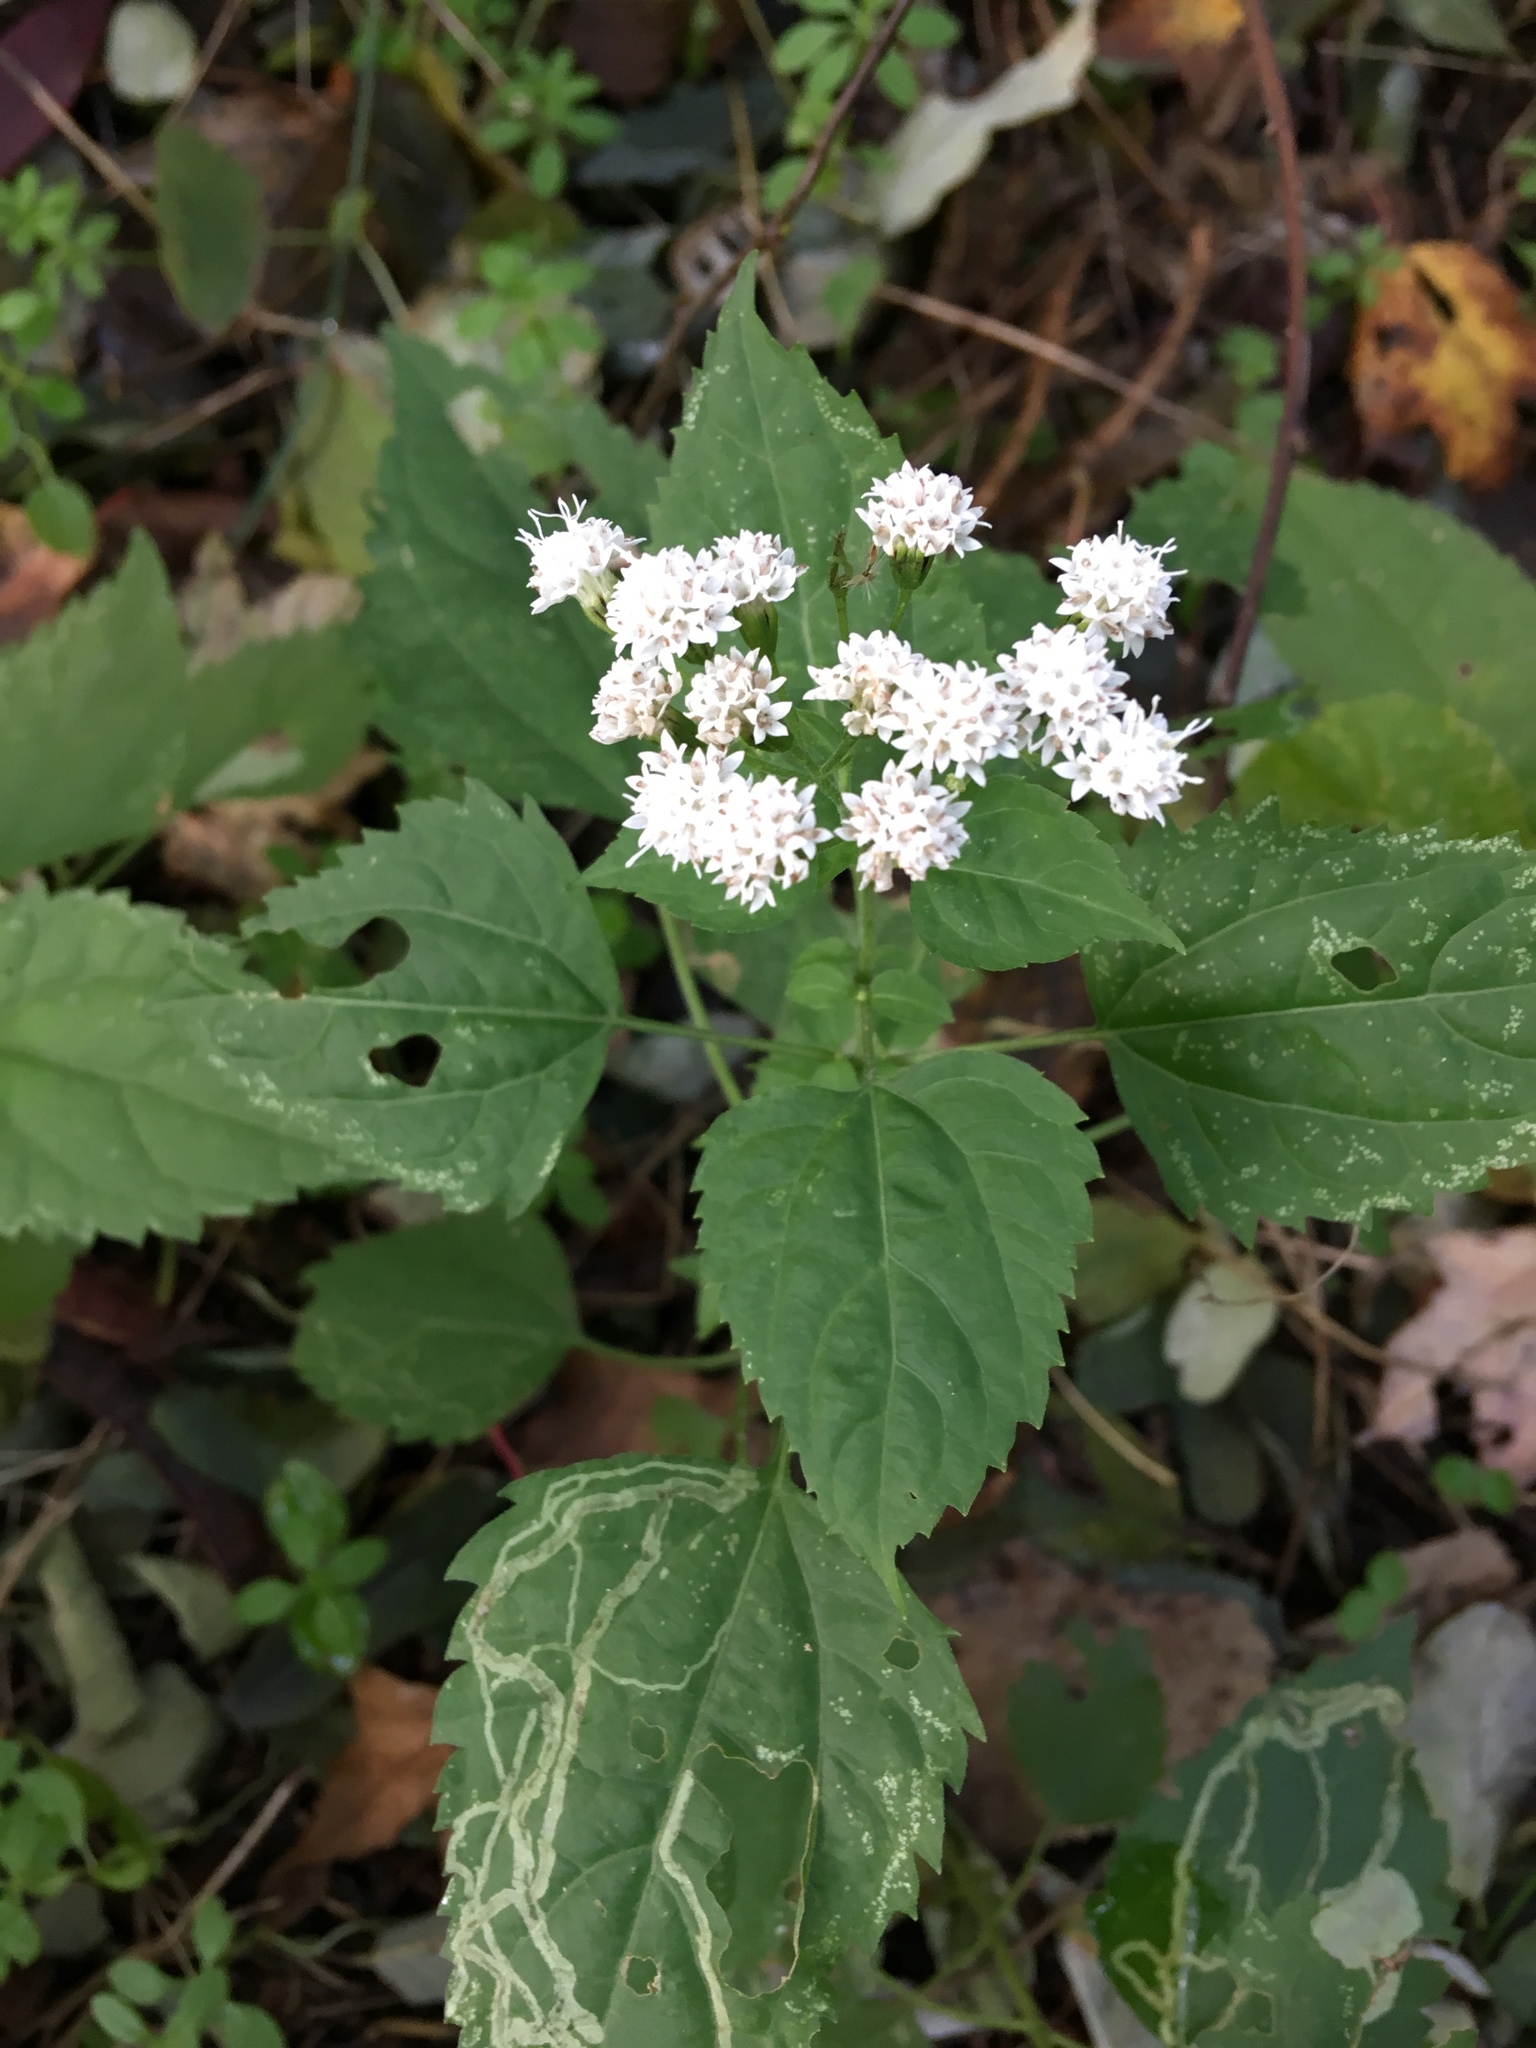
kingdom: Plantae
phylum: Tracheophyta
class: Magnoliopsida
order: Asterales
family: Asteraceae
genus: Ageratina
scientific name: Ageratina altissima
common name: White snakeroot
